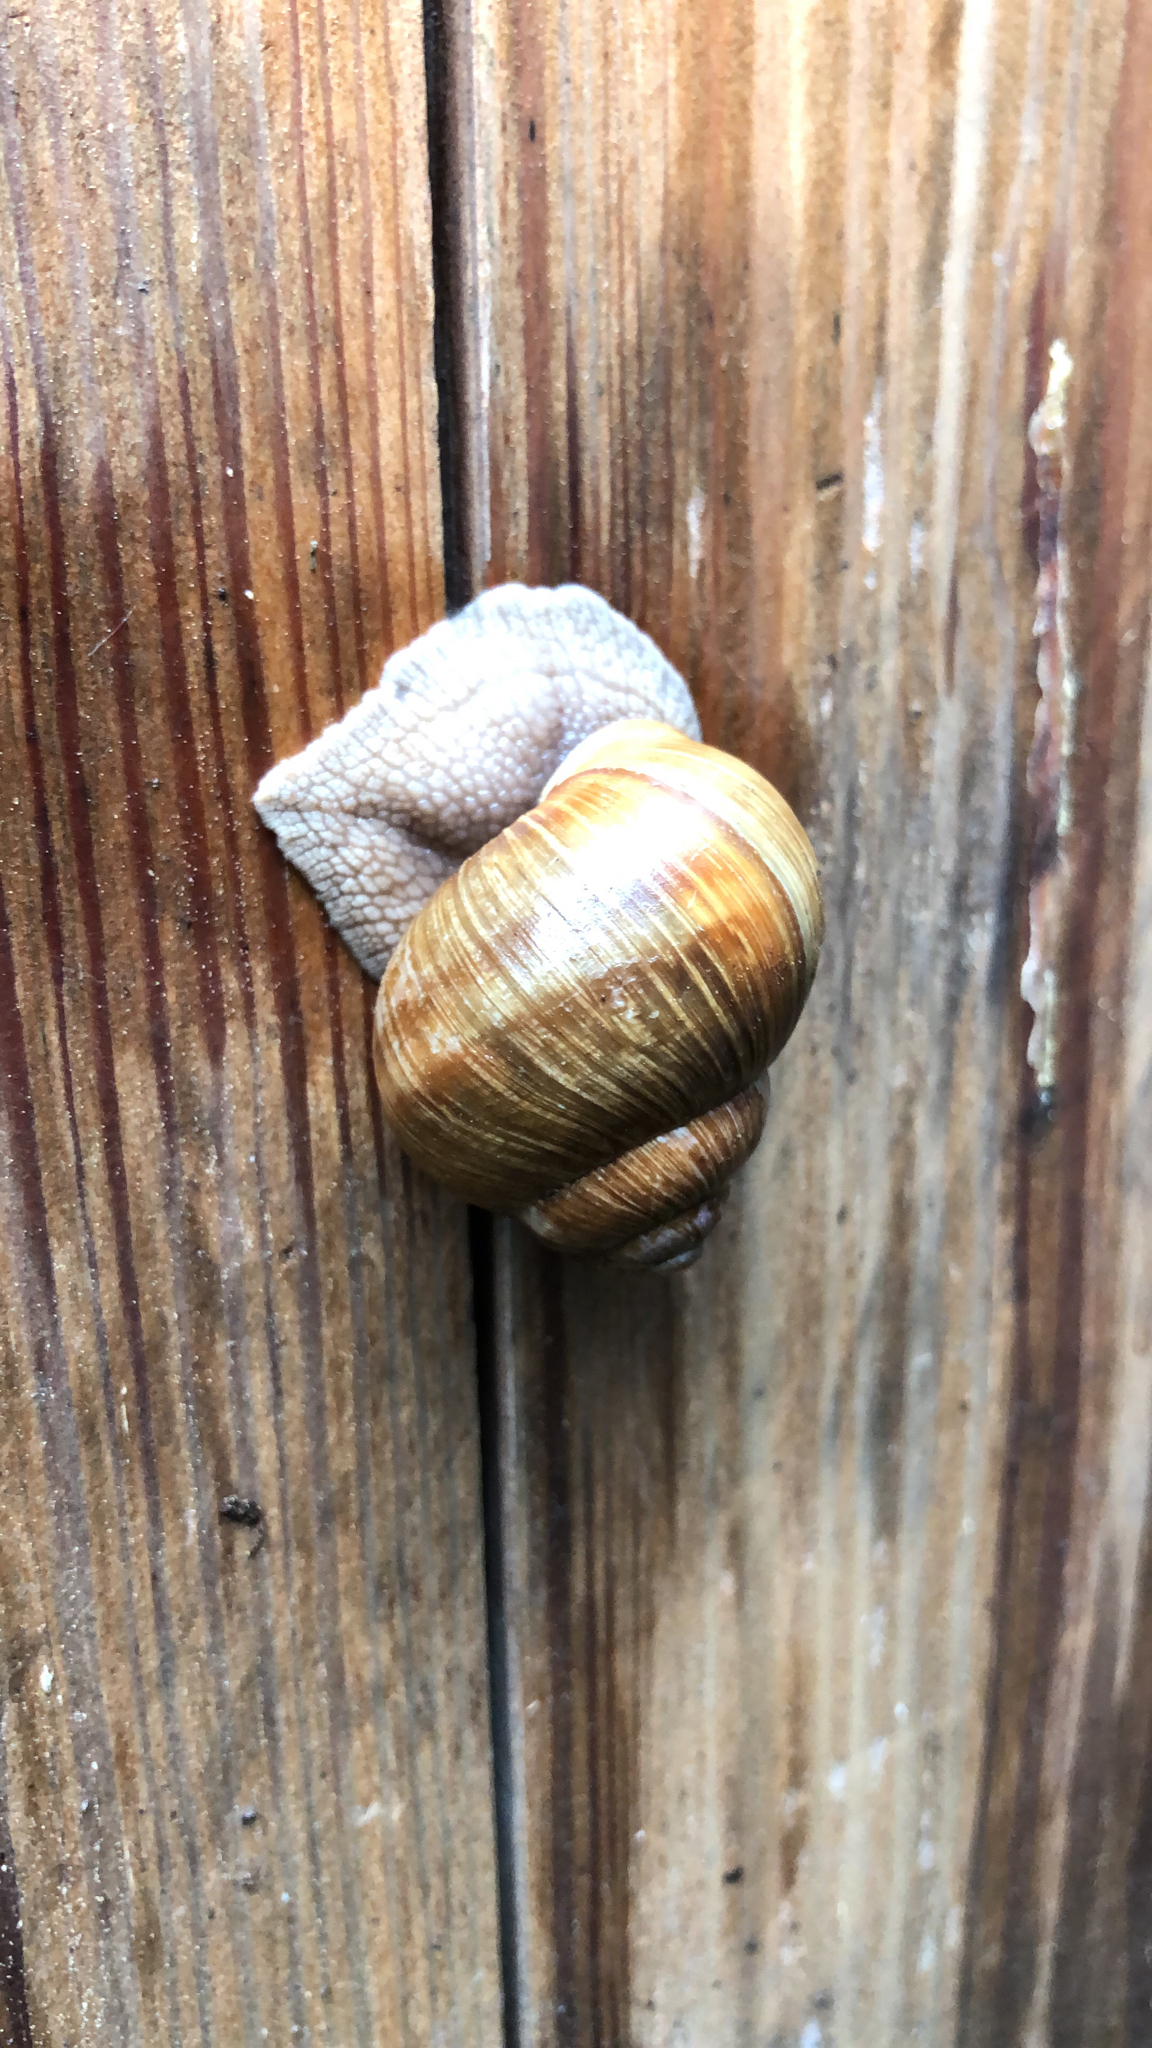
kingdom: Animalia
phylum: Mollusca
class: Gastropoda
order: Stylommatophora
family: Helicidae
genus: Helix
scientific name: Helix pomatia
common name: Roman snail
